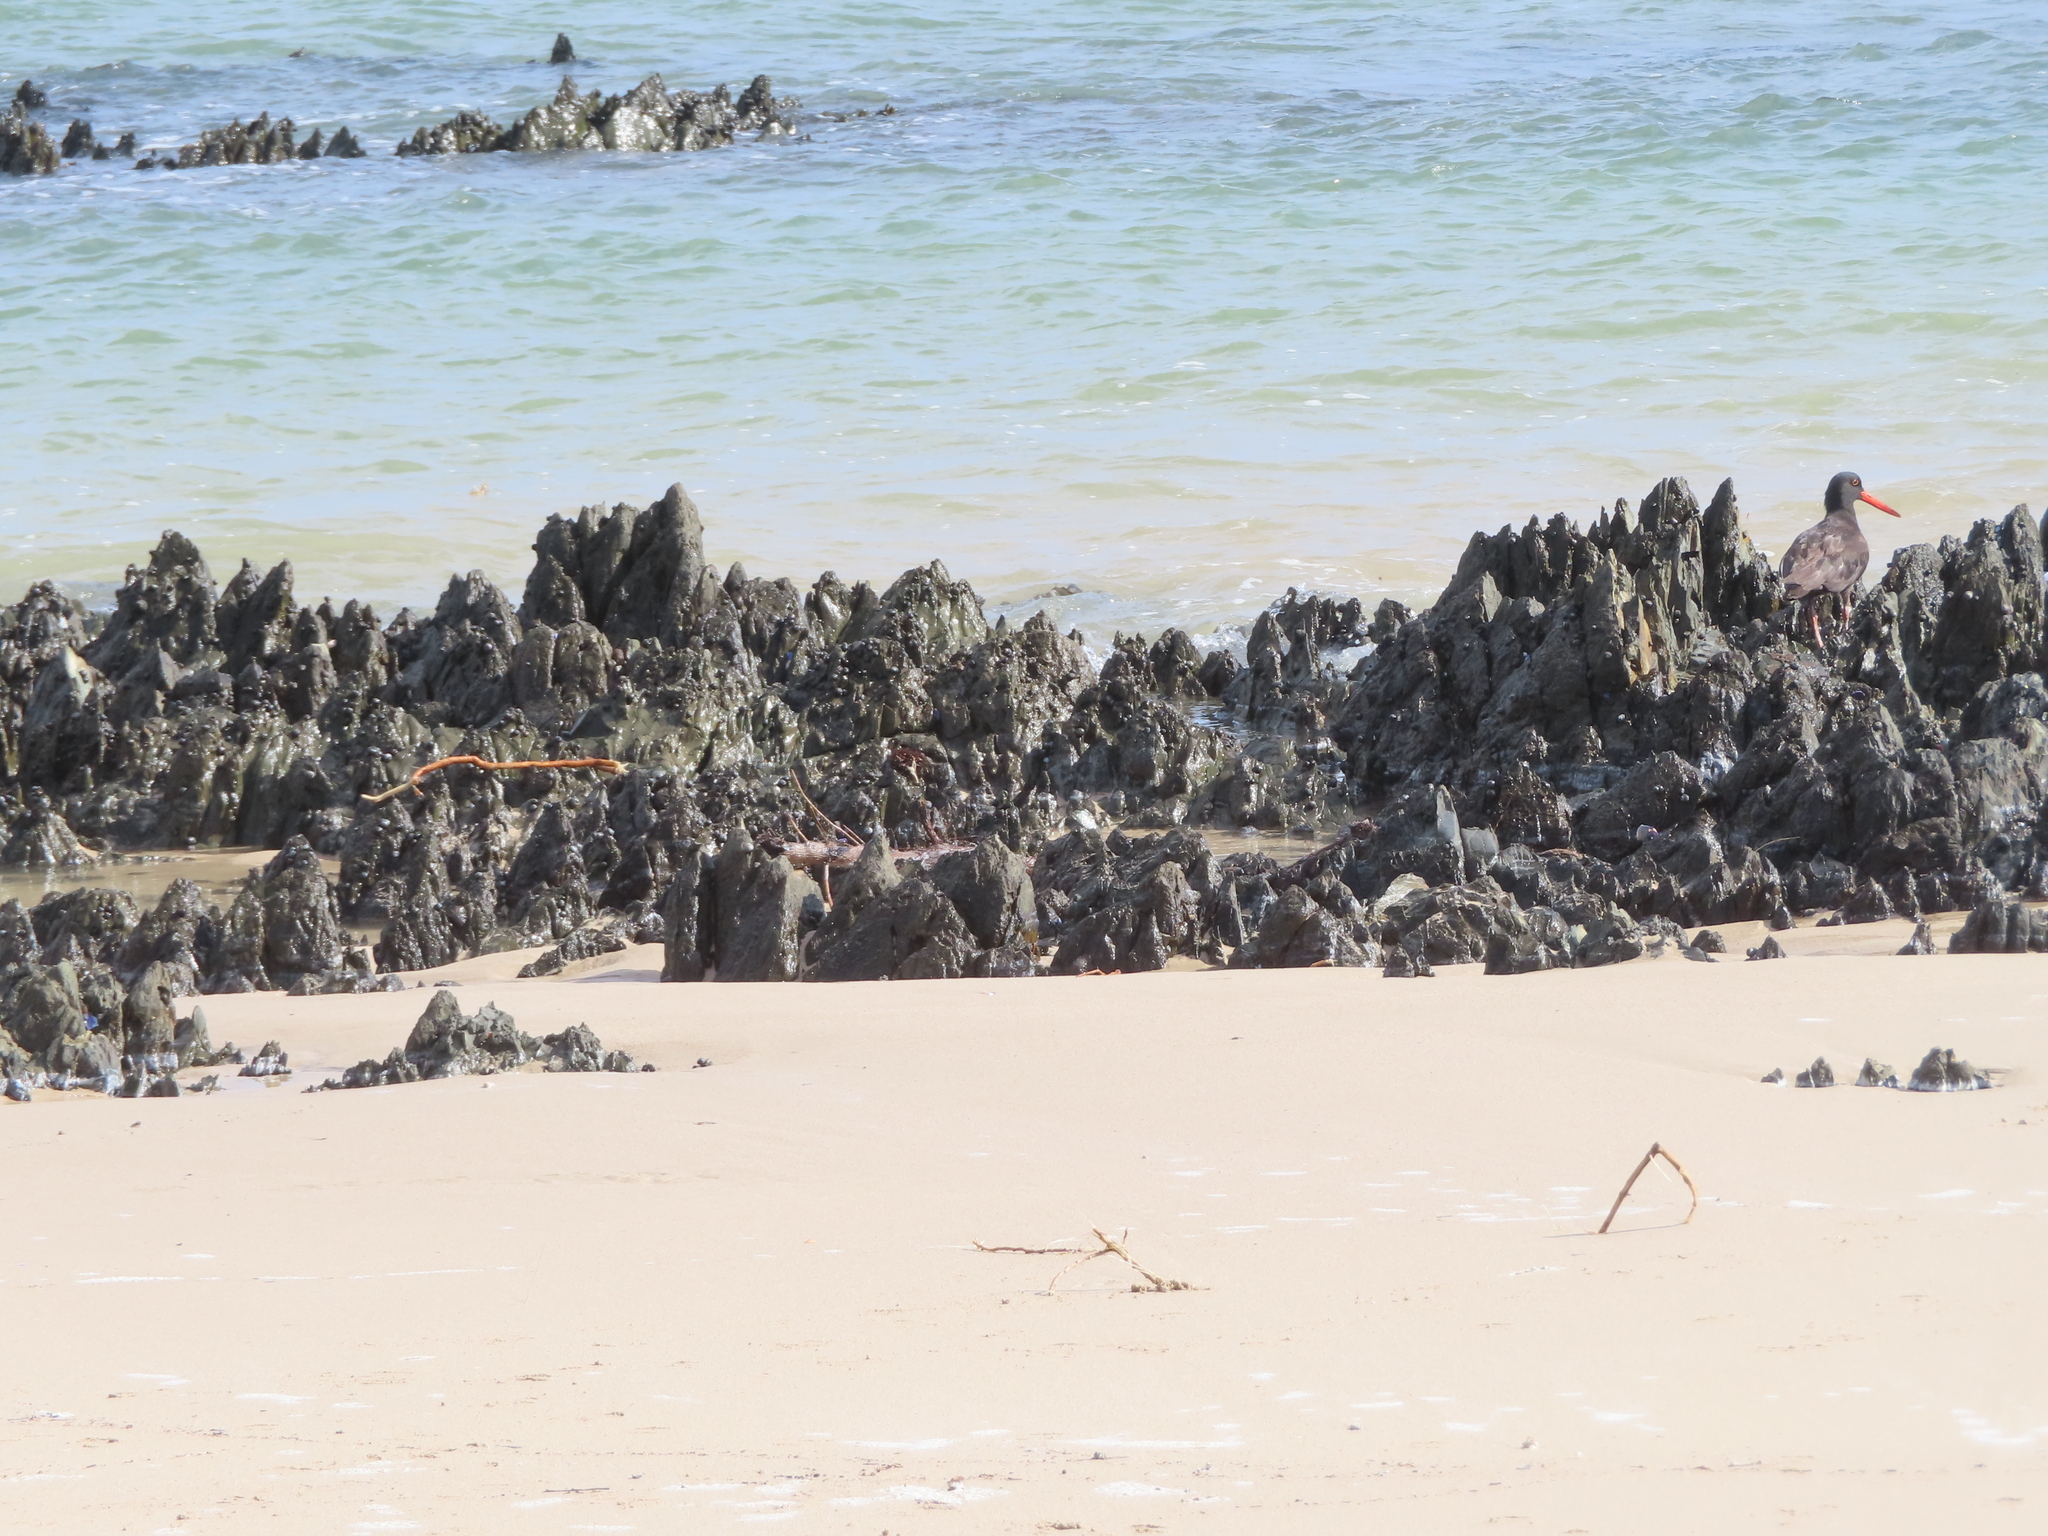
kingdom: Animalia
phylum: Chordata
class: Aves
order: Charadriiformes
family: Haematopodidae
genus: Haematopus
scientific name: Haematopus moquini
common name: African oystercatcher
